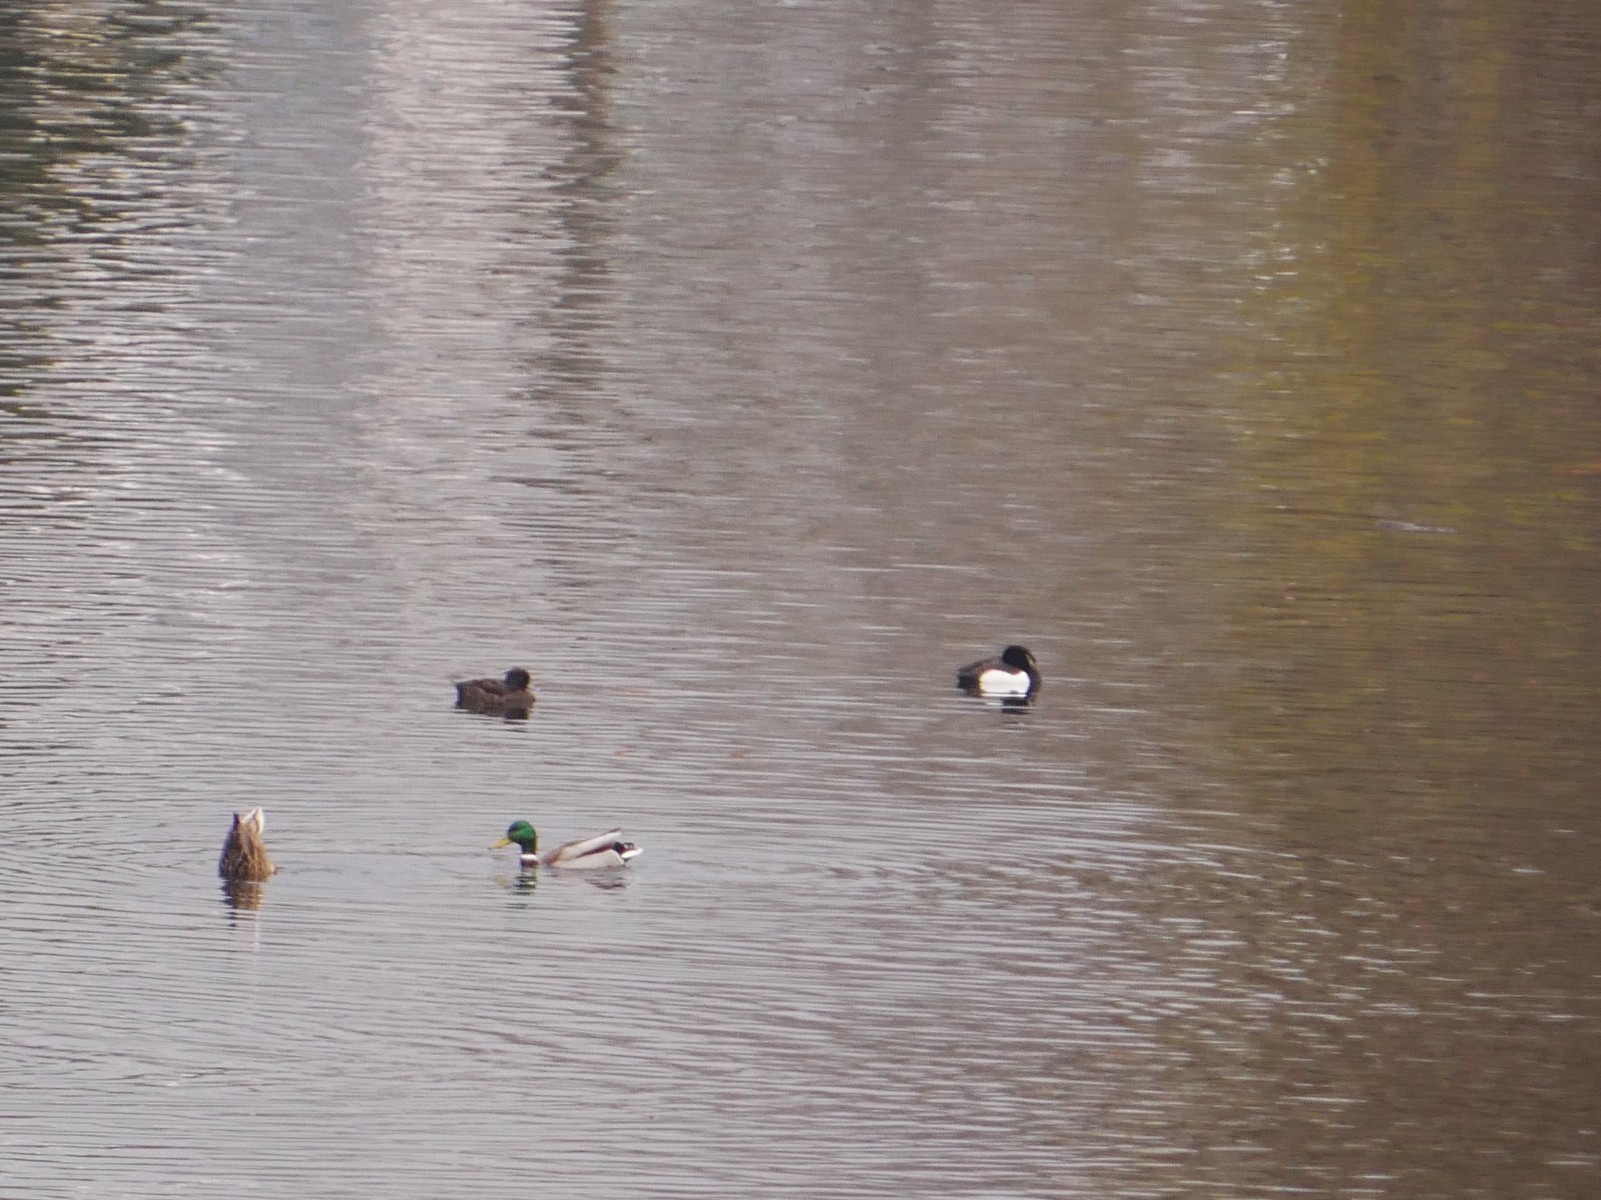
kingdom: Animalia
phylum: Chordata
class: Aves
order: Anseriformes
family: Anatidae
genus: Aythya
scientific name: Aythya fuligula
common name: Tufted duck
